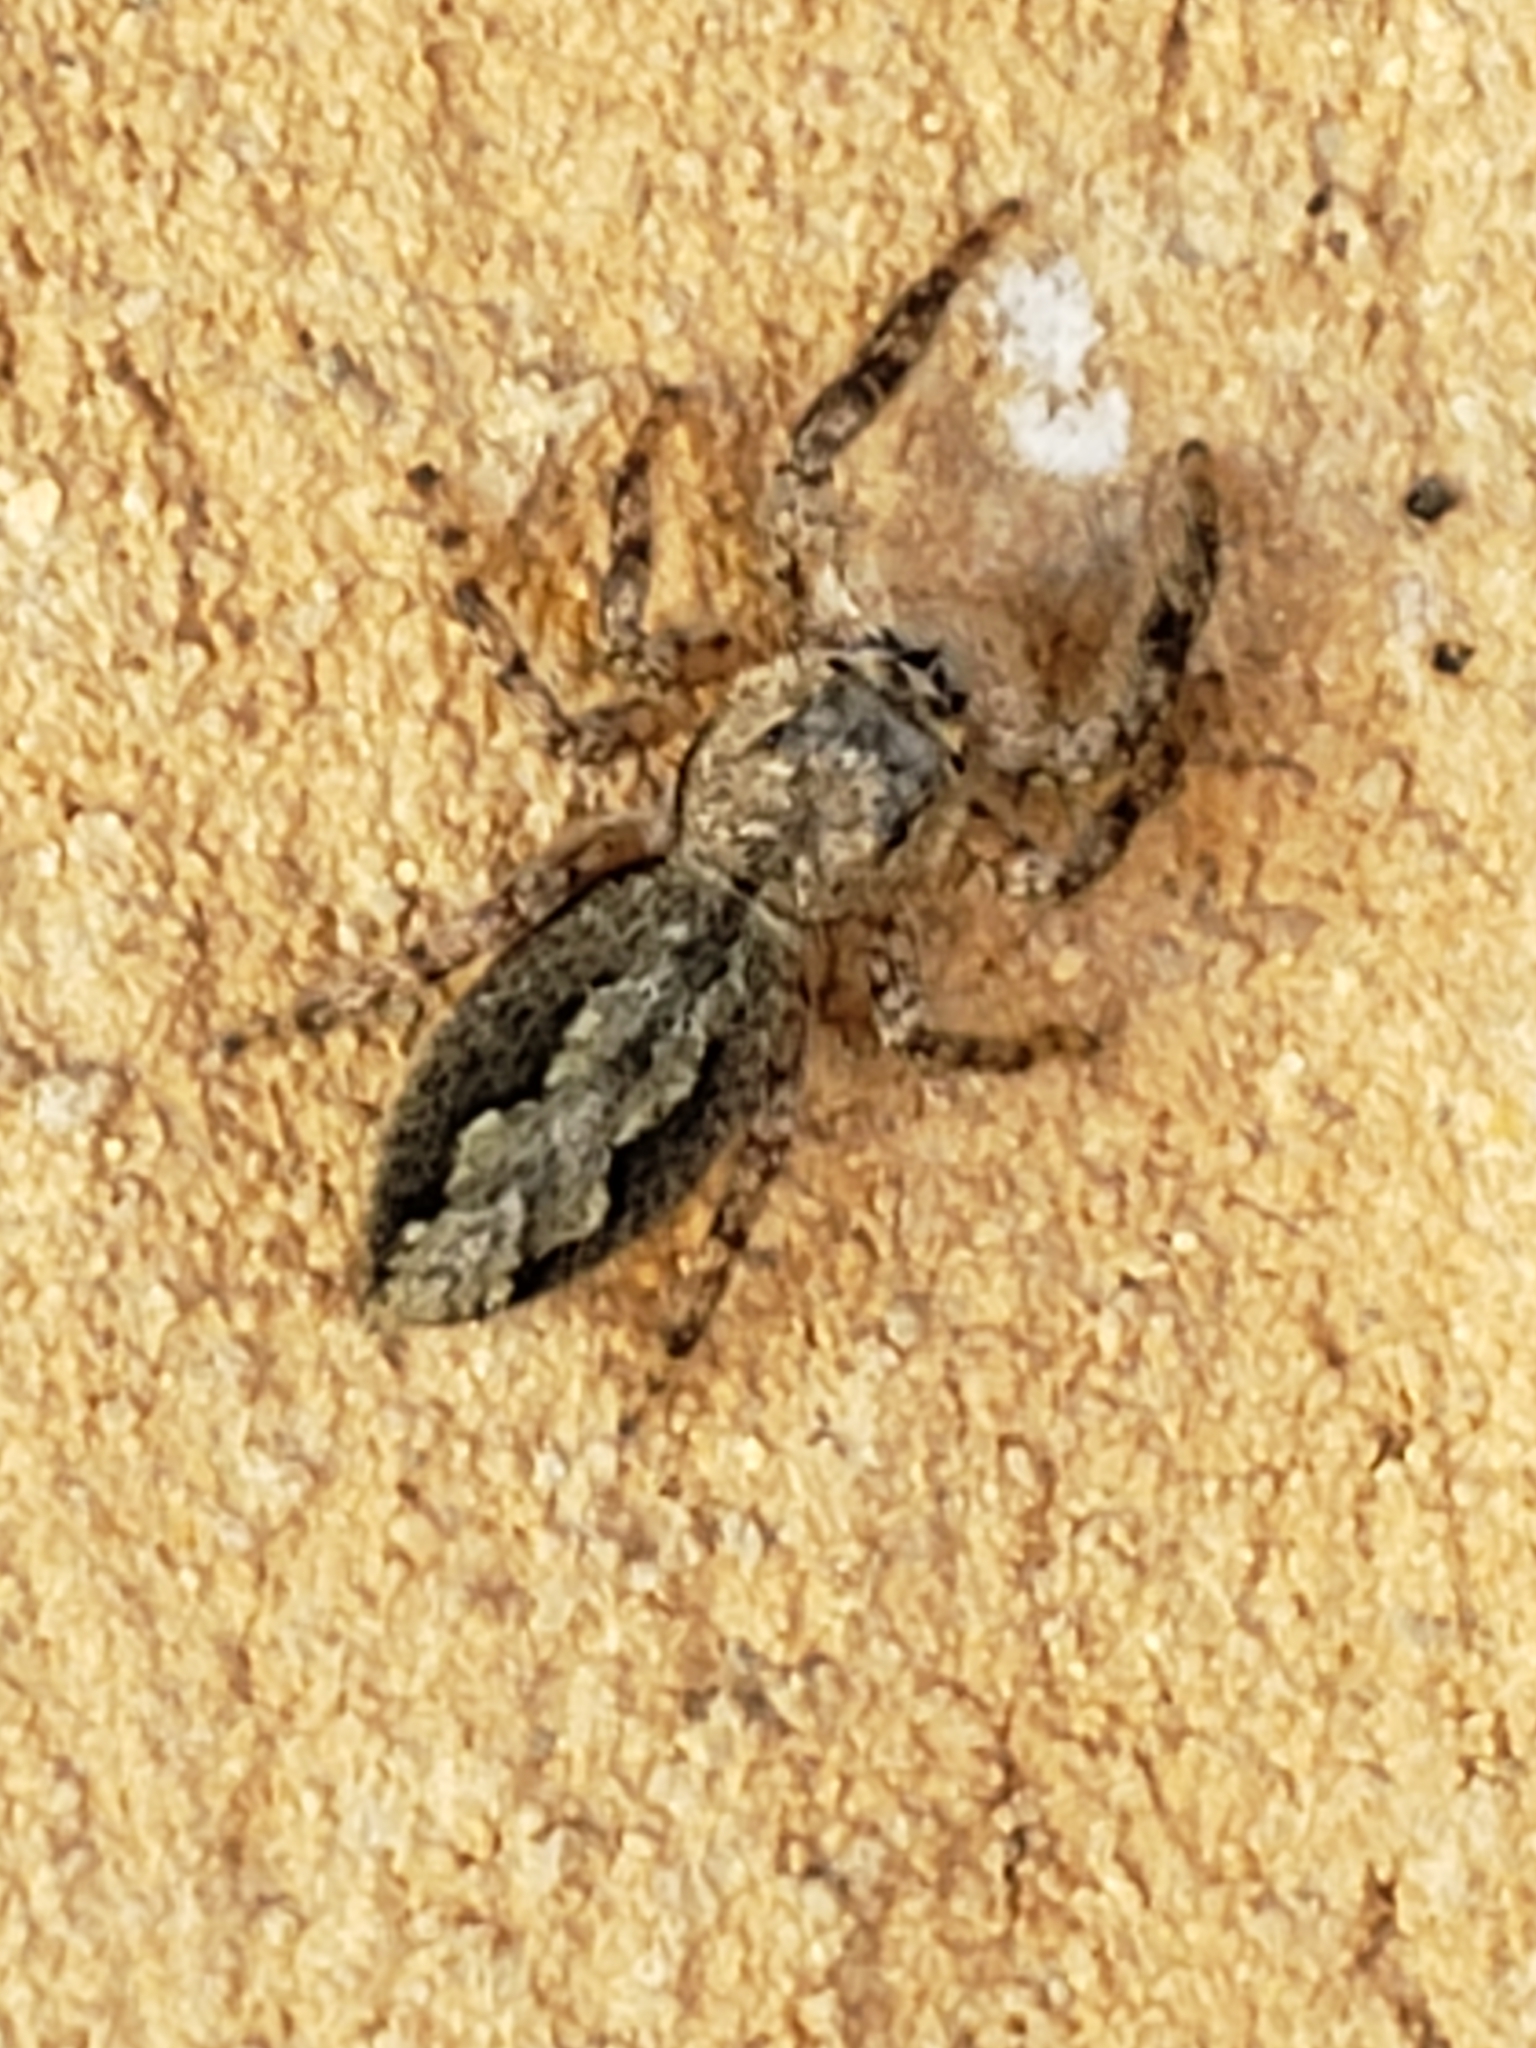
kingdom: Animalia
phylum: Arthropoda
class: Arachnida
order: Araneae
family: Salticidae
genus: Platycryptus
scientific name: Platycryptus undatus
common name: Tan jumping spider
